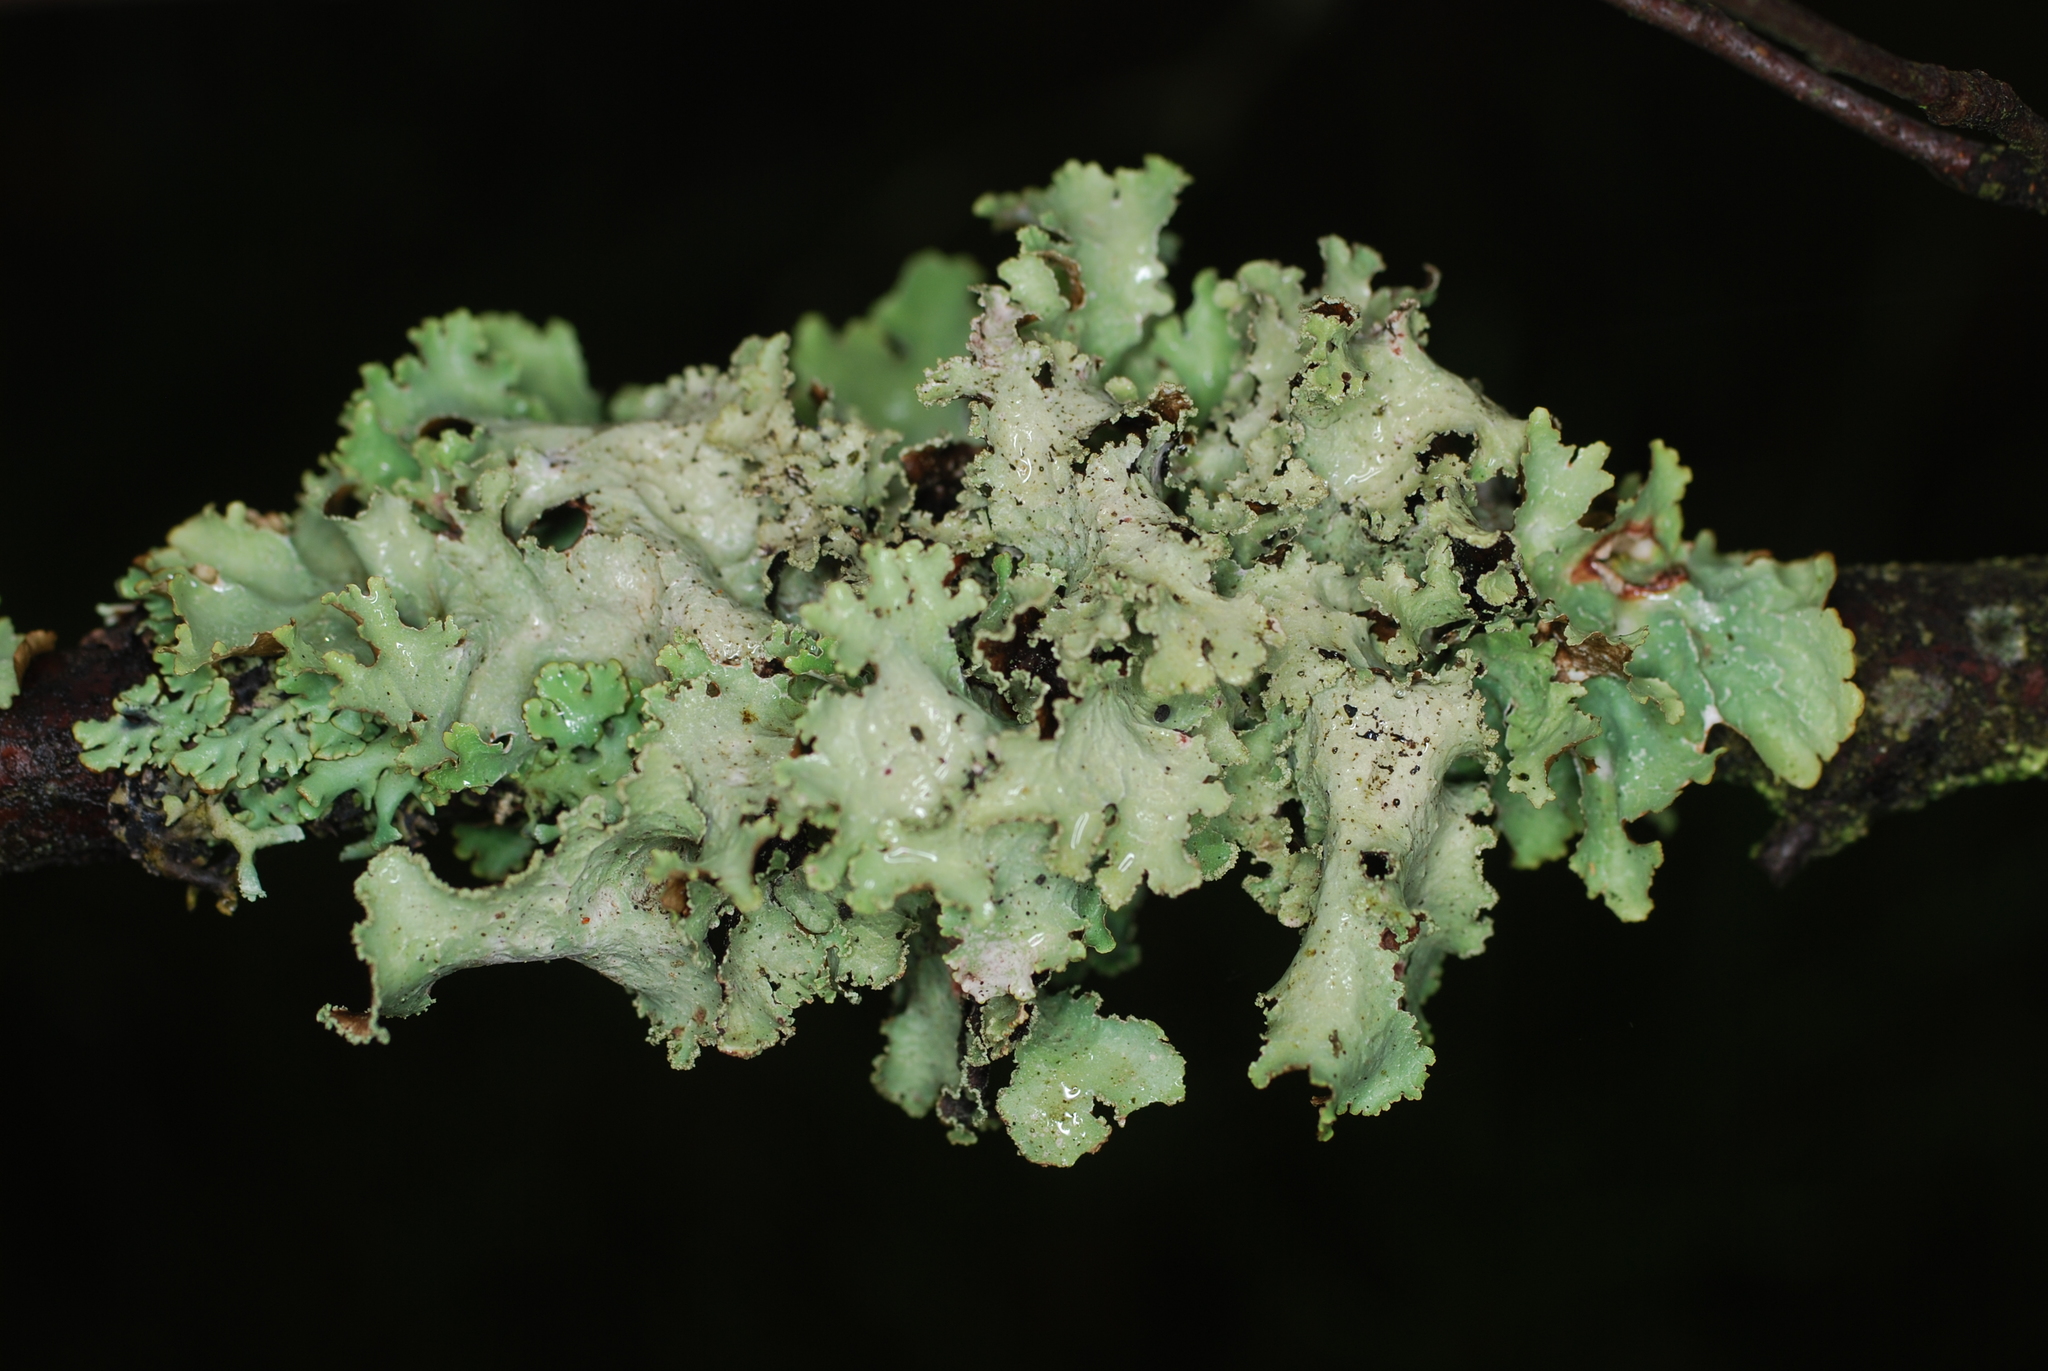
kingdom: Fungi
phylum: Ascomycota
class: Lecanoromycetes
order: Lecanorales
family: Parmeliaceae
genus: Platismatia
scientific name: Platismatia glauca
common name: Varied rag lichen
